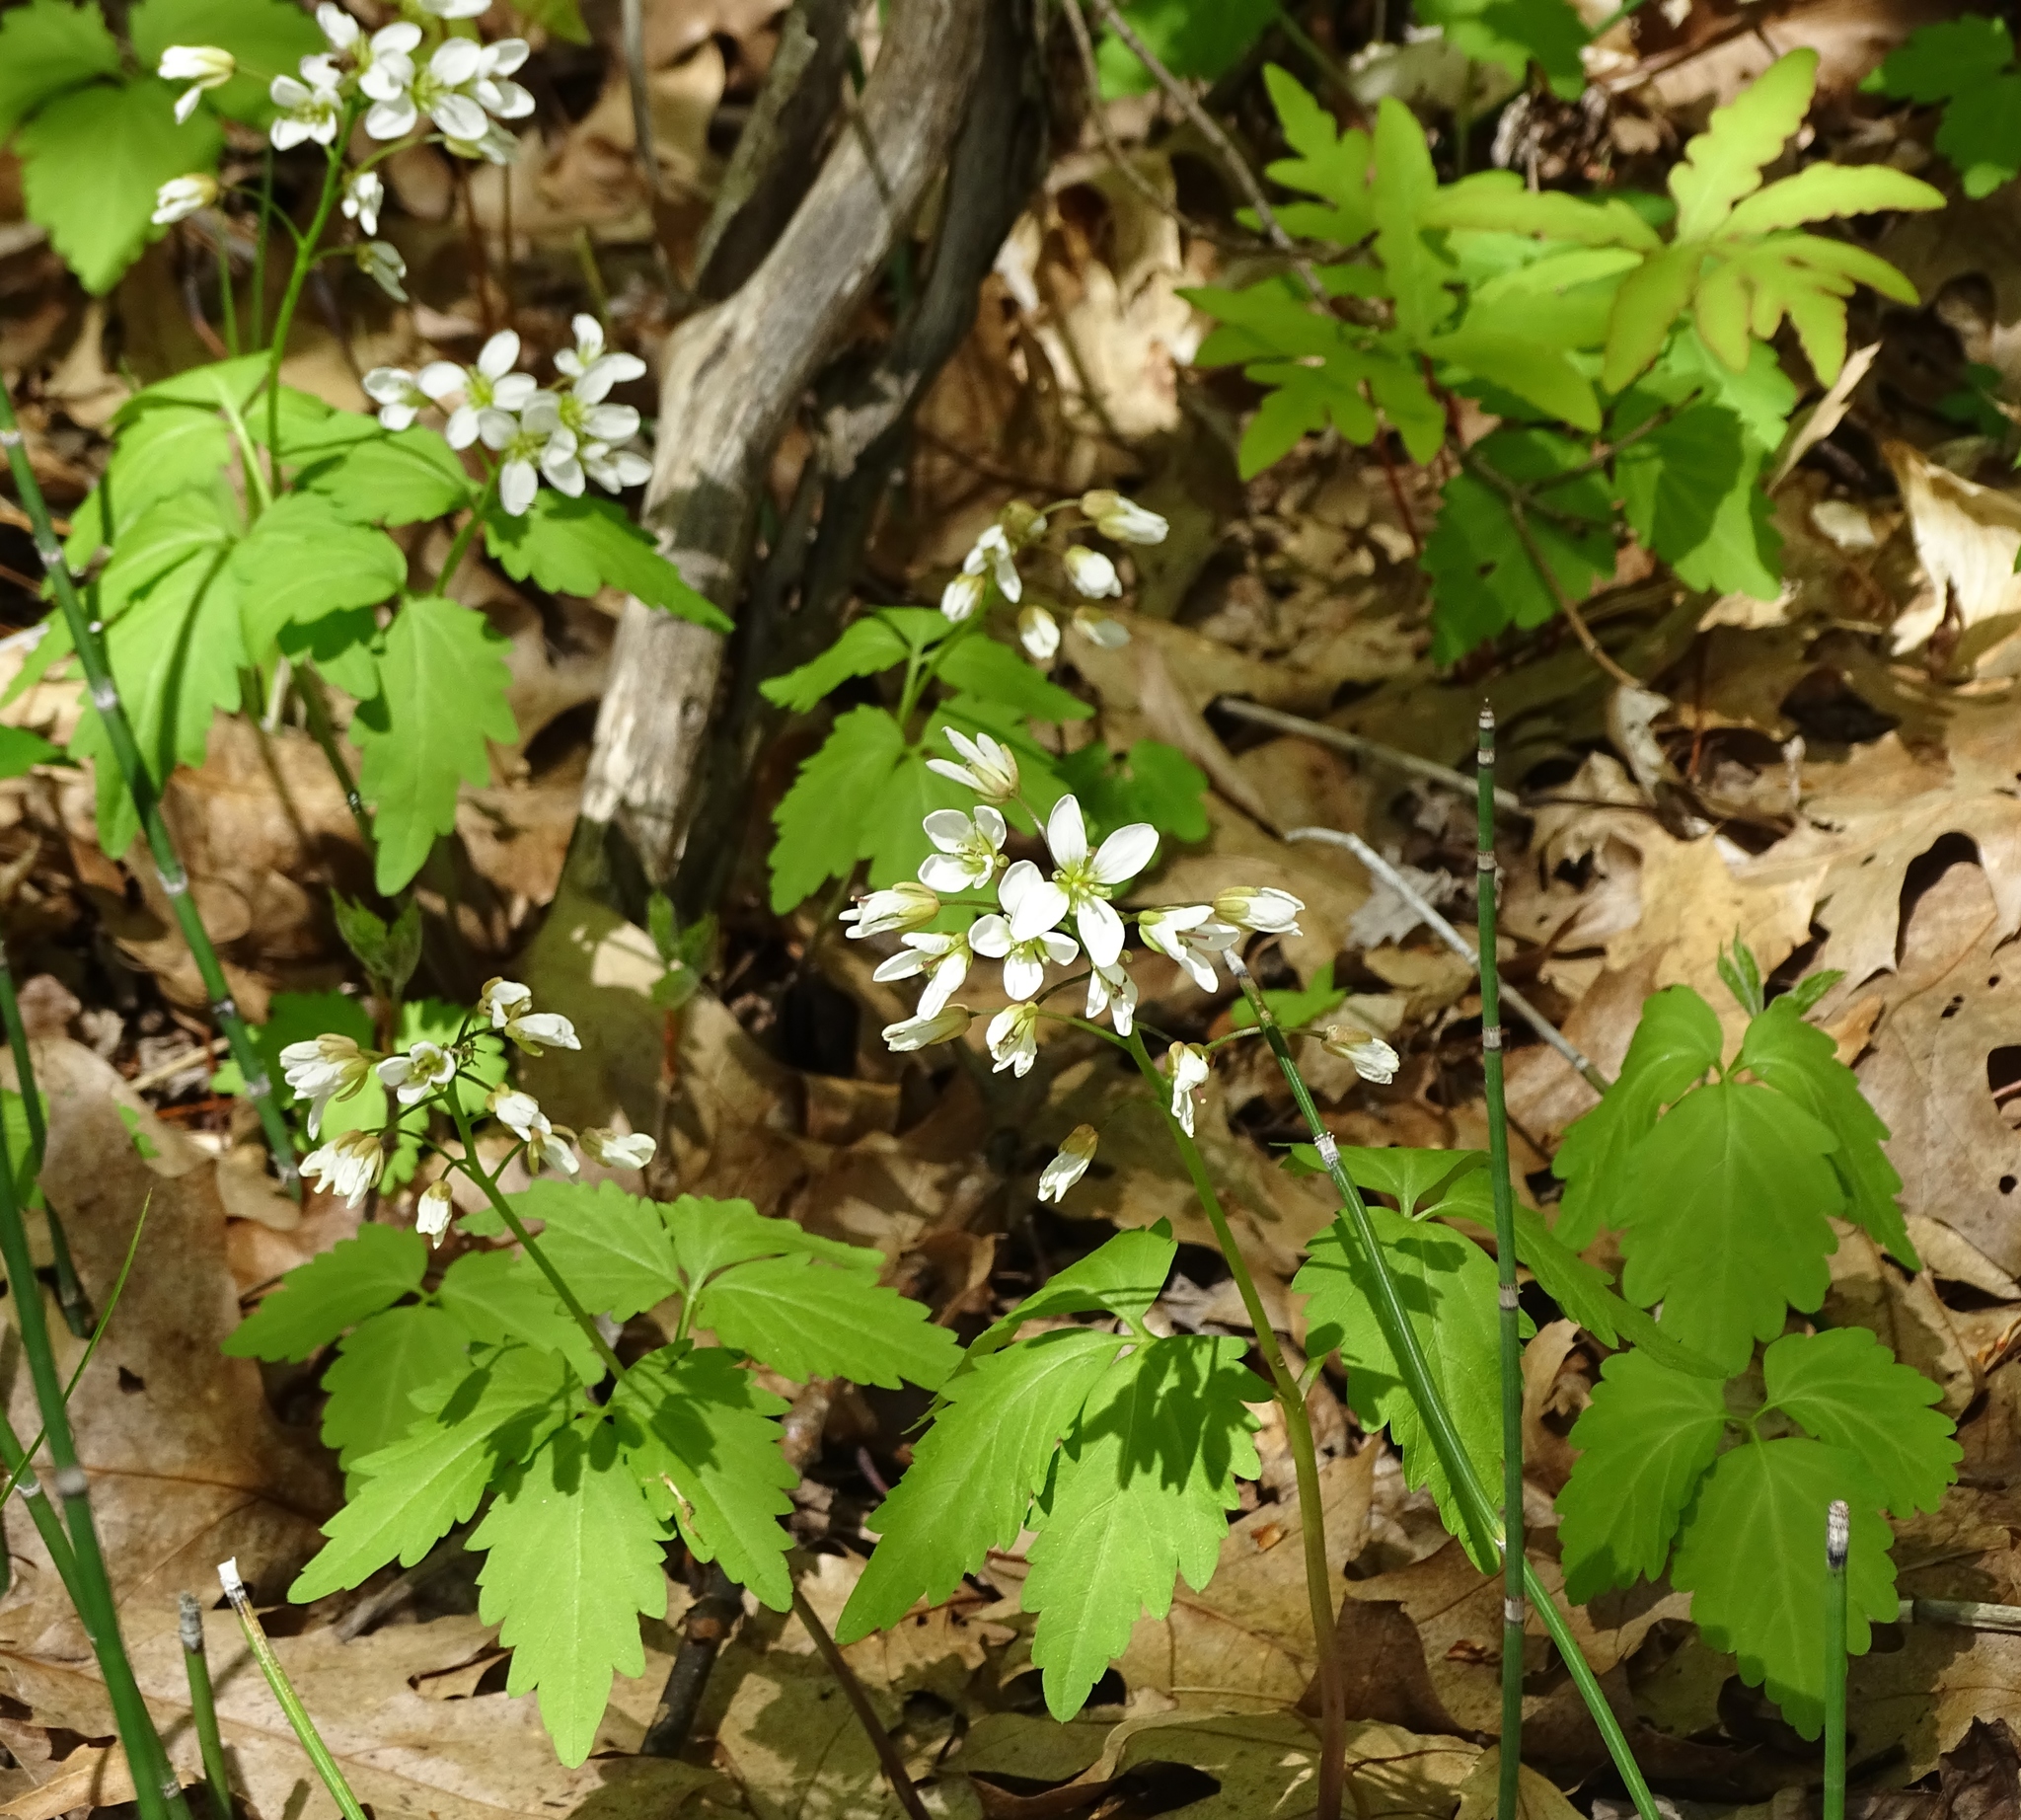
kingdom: Plantae
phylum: Tracheophyta
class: Magnoliopsida
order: Brassicales
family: Brassicaceae
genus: Cardamine
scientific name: Cardamine diphylla
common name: Broad-leaved toothwort
